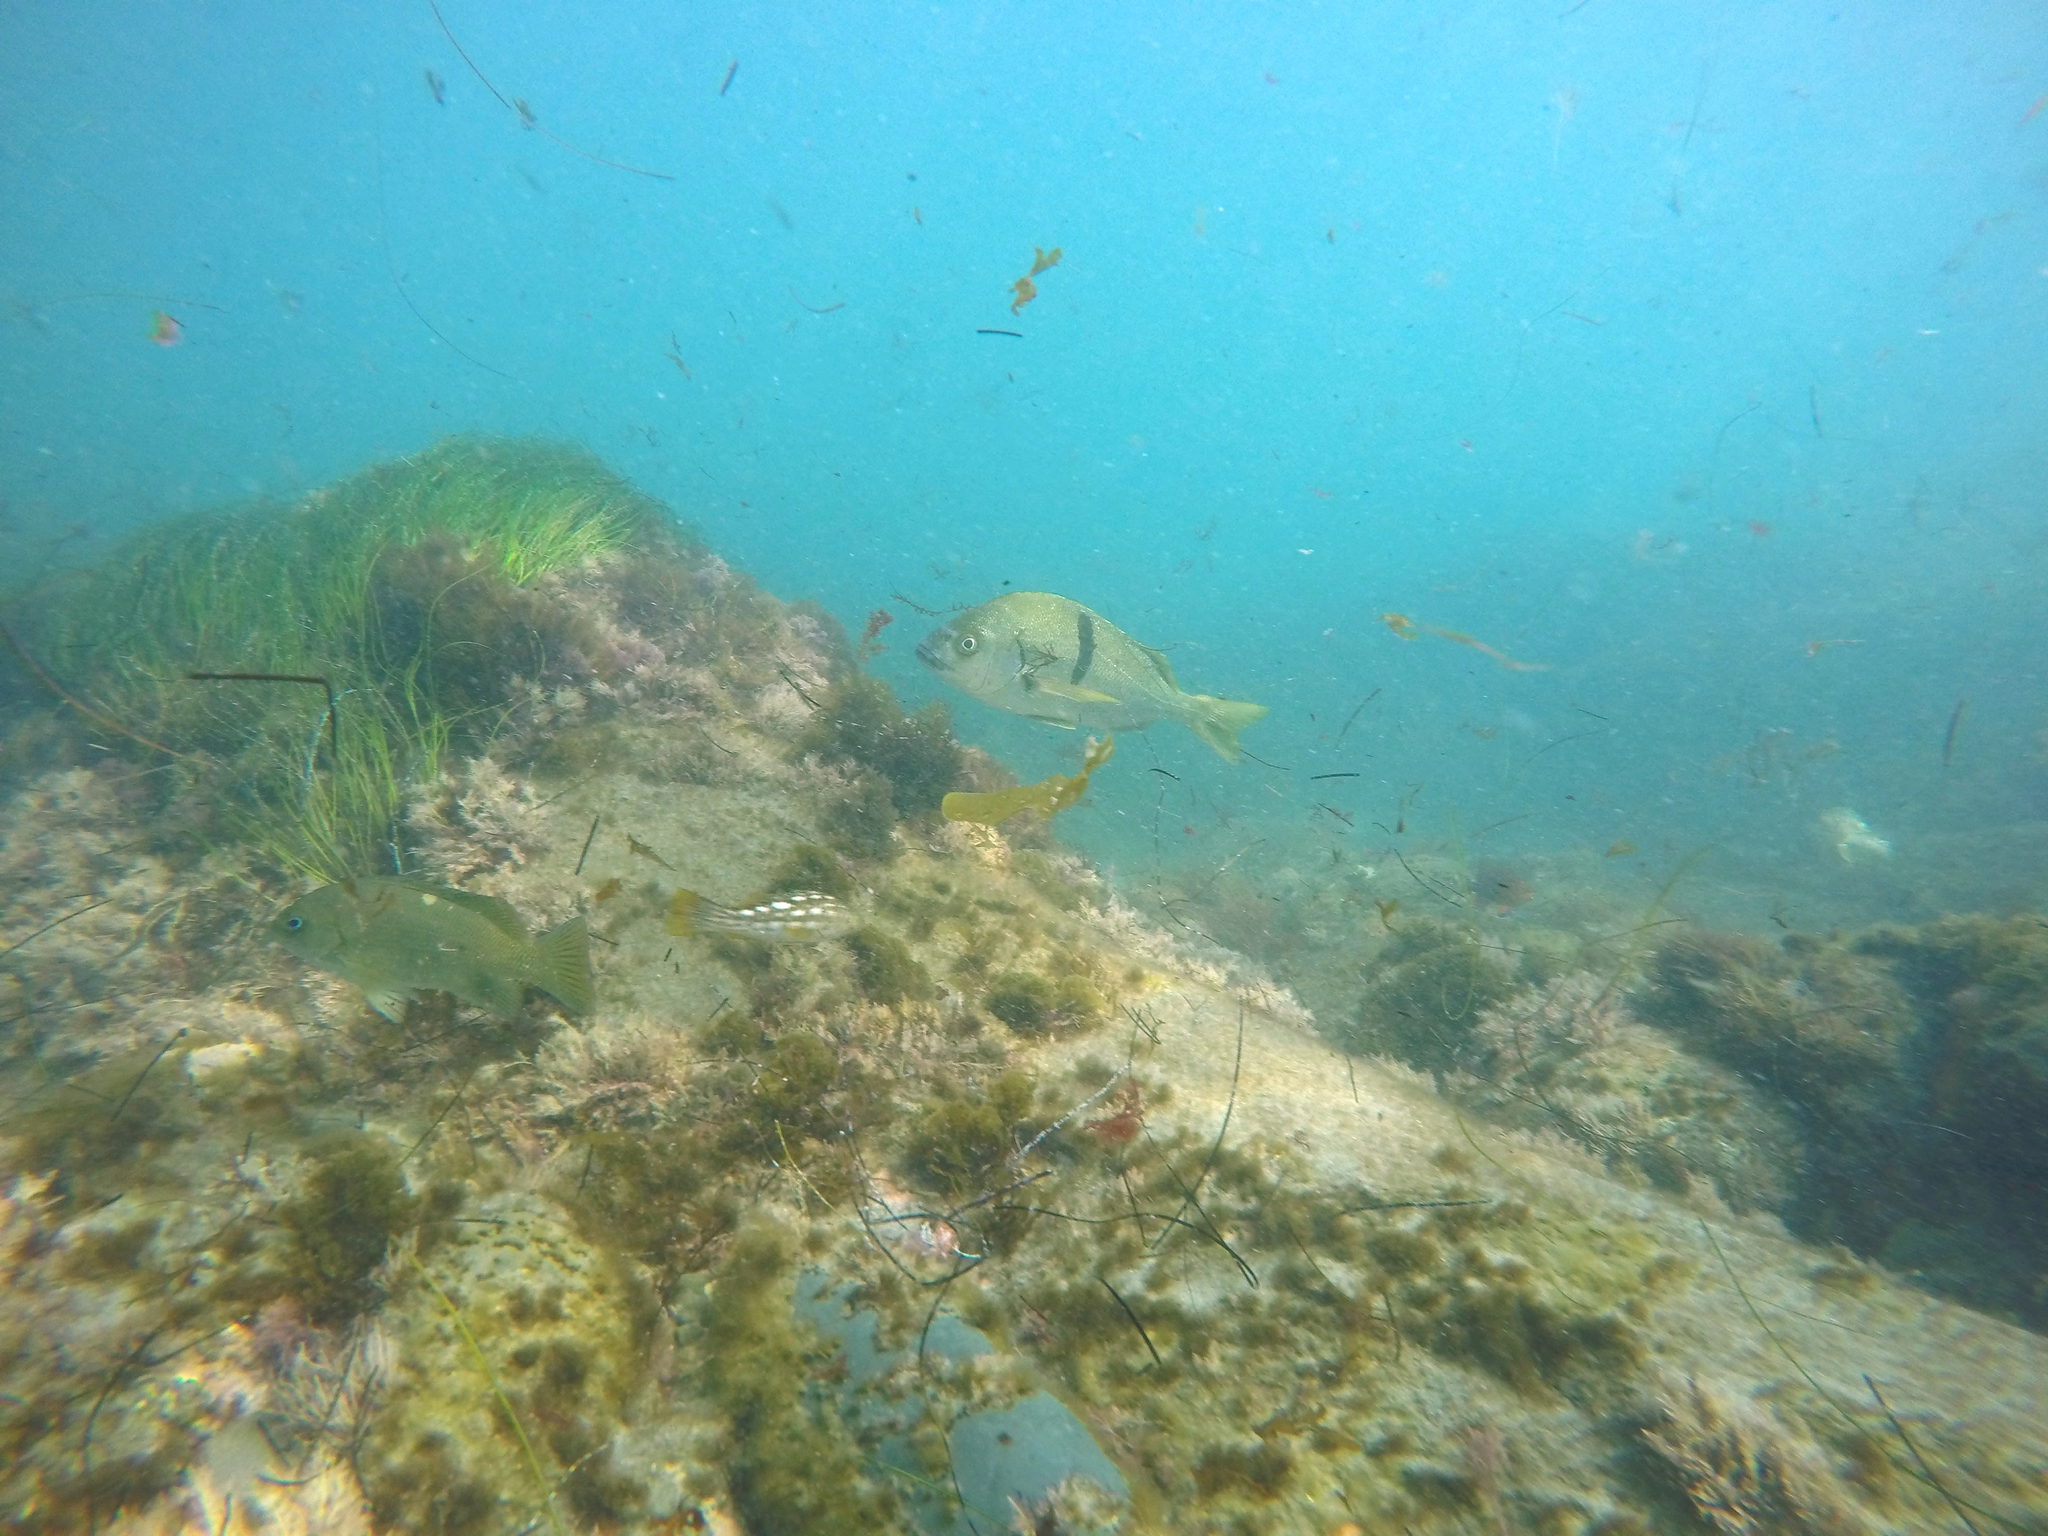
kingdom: Animalia
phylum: Chordata
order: Perciformes
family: Haemulidae
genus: Anisotremus
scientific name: Anisotremus davidsonii
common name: Grunt
